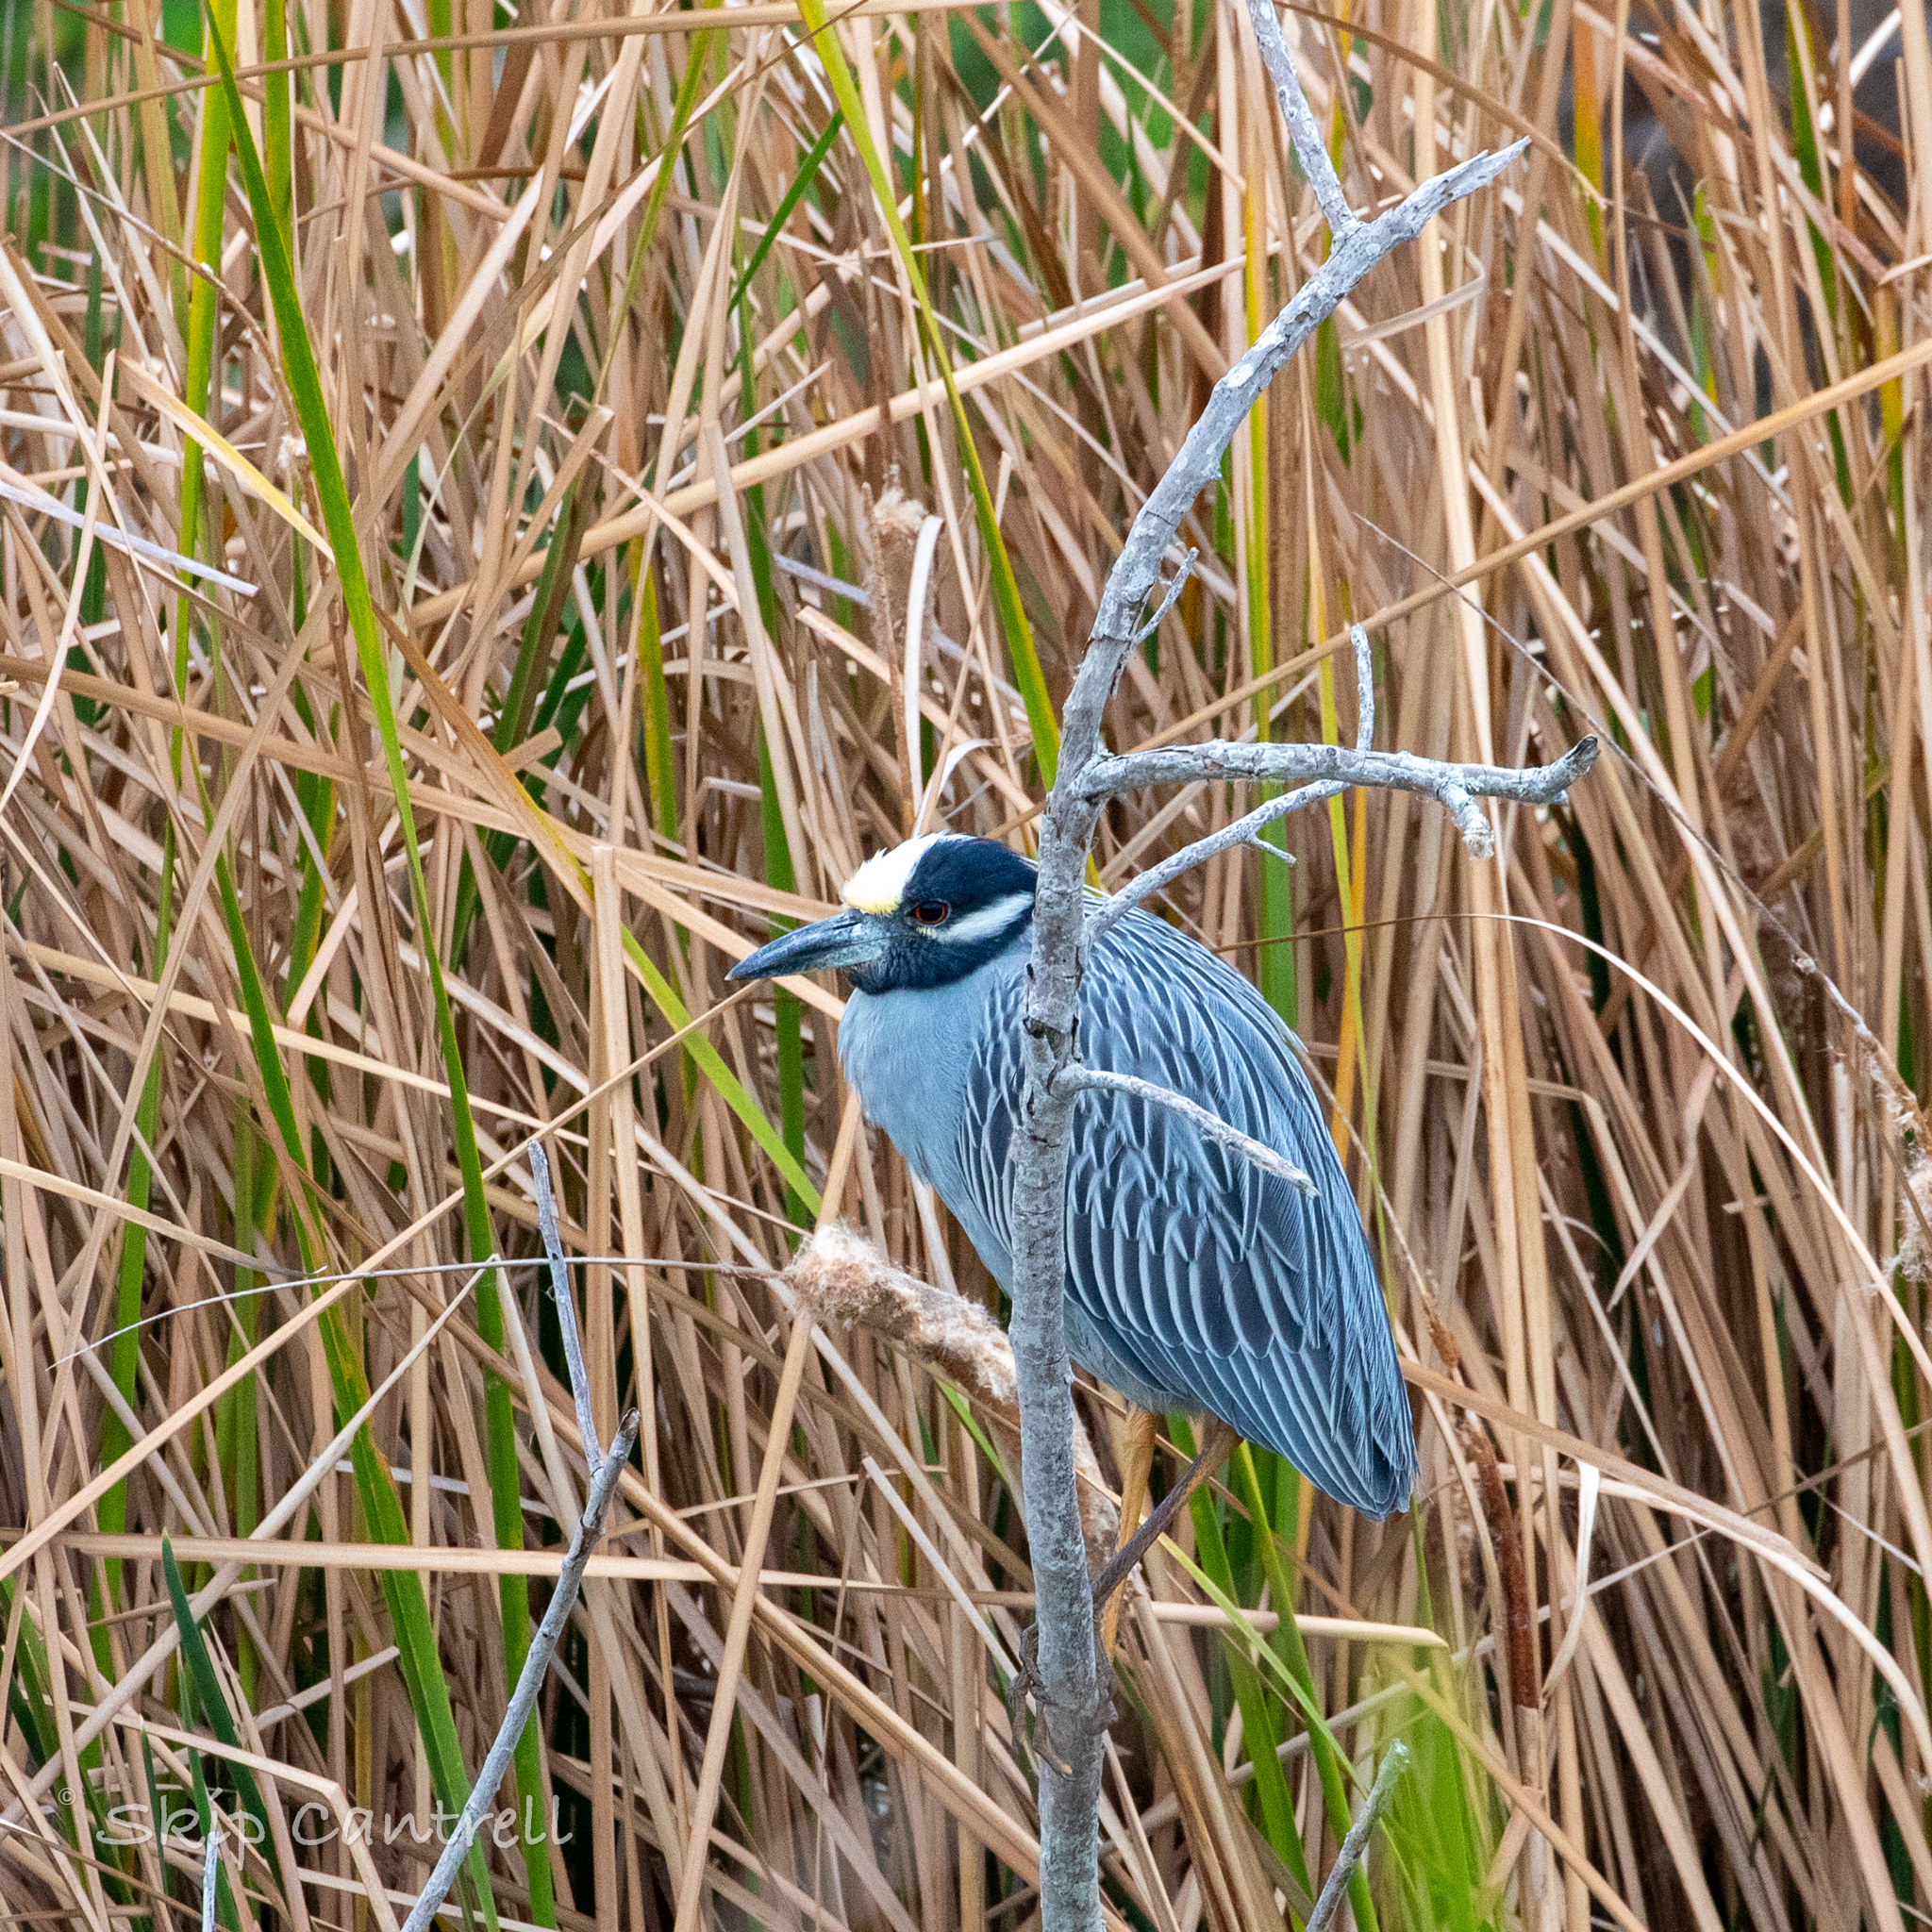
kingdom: Animalia
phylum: Chordata
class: Aves
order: Pelecaniformes
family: Ardeidae
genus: Nyctanassa
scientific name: Nyctanassa violacea
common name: Yellow-crowned night heron
